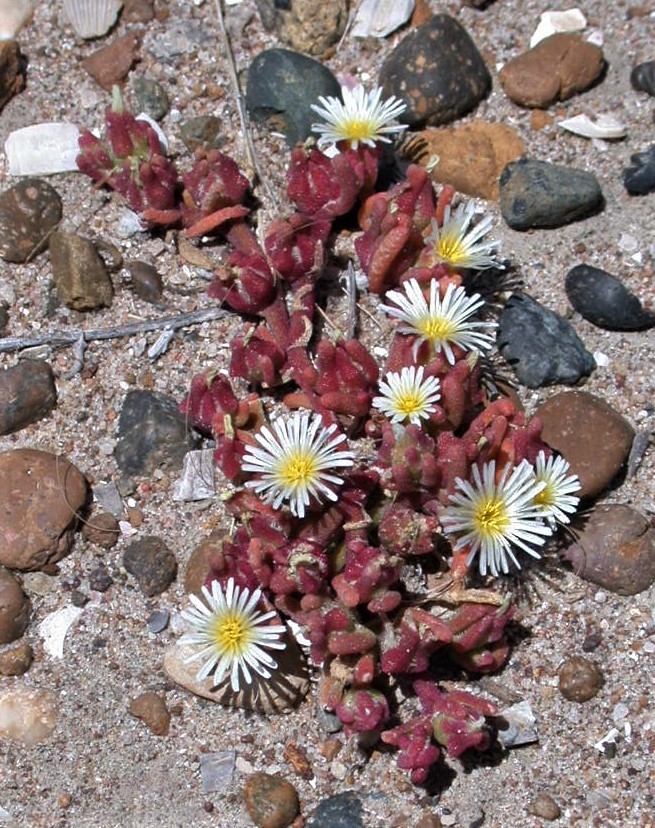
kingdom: Plantae
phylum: Tracheophyta
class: Magnoliopsida
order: Caryophyllales
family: Aizoaceae
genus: Mesembryanthemum
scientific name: Mesembryanthemum nodiflorum
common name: Slenderleaf iceplant
